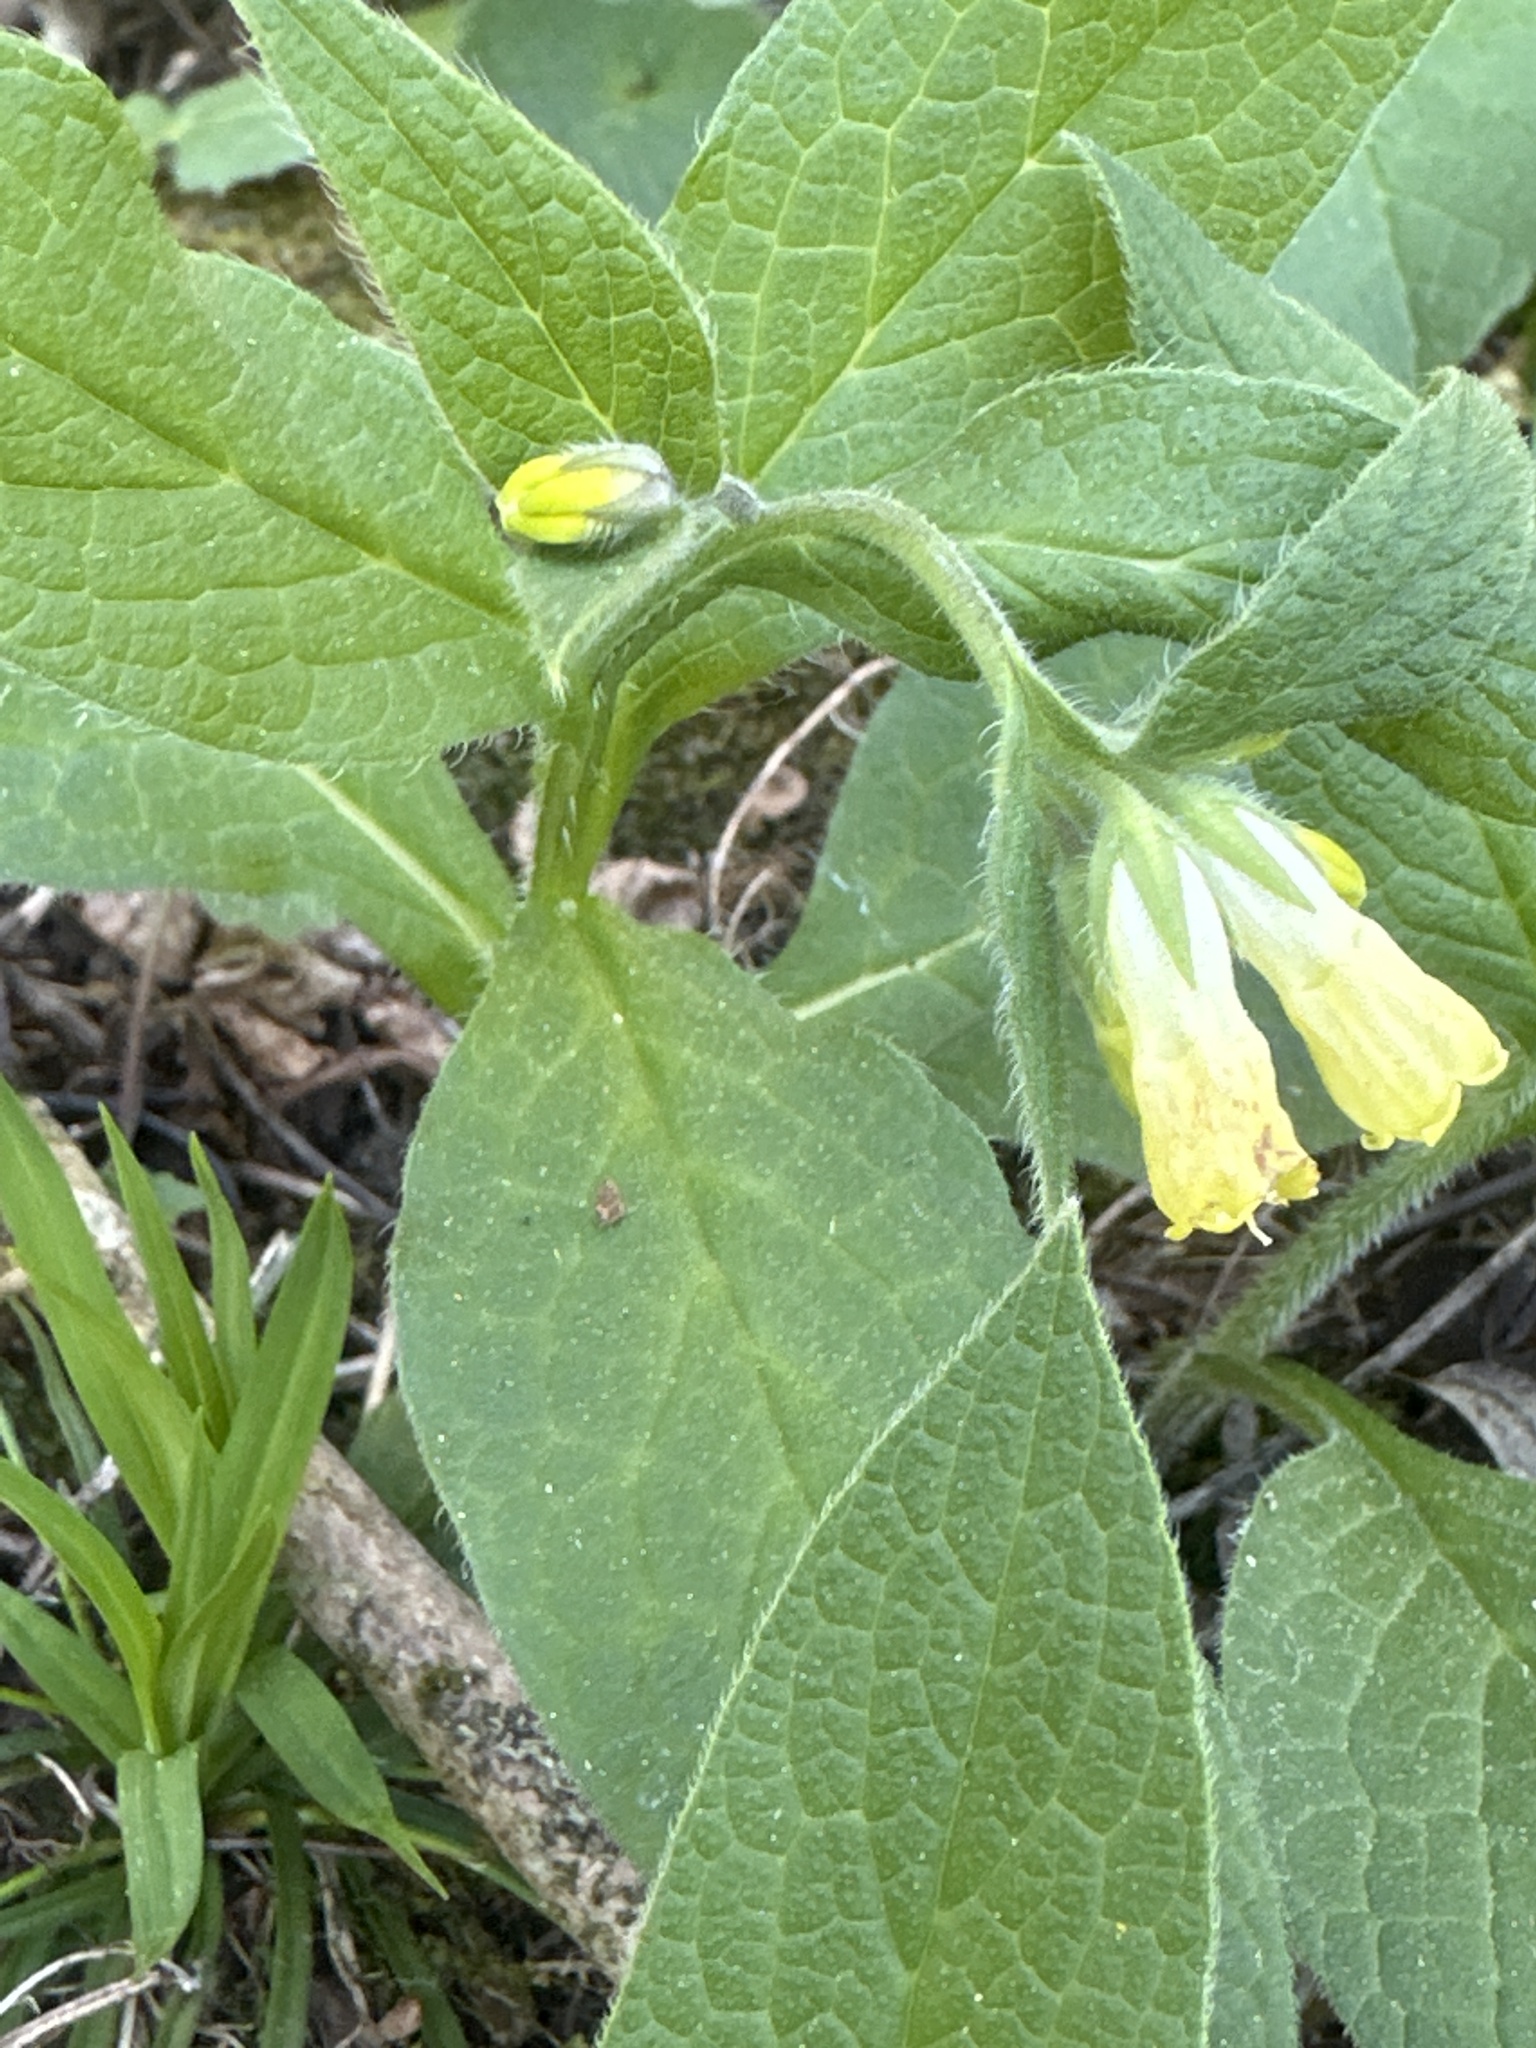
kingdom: Plantae
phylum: Tracheophyta
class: Magnoliopsida
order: Boraginales
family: Boraginaceae
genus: Symphytum
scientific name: Symphytum tuberosum
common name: Tuberous comfrey
